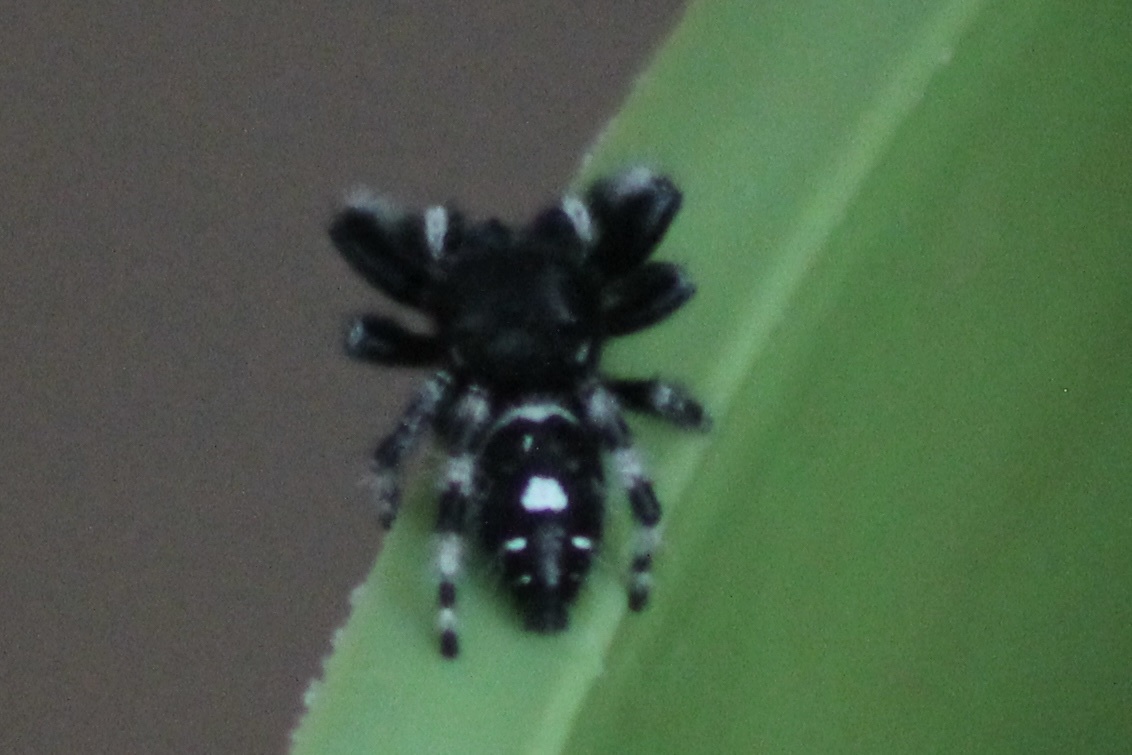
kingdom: Animalia
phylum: Arthropoda
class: Arachnida
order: Araneae
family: Salticidae
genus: Phidippus
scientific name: Phidippus audax
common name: Bold jumper
